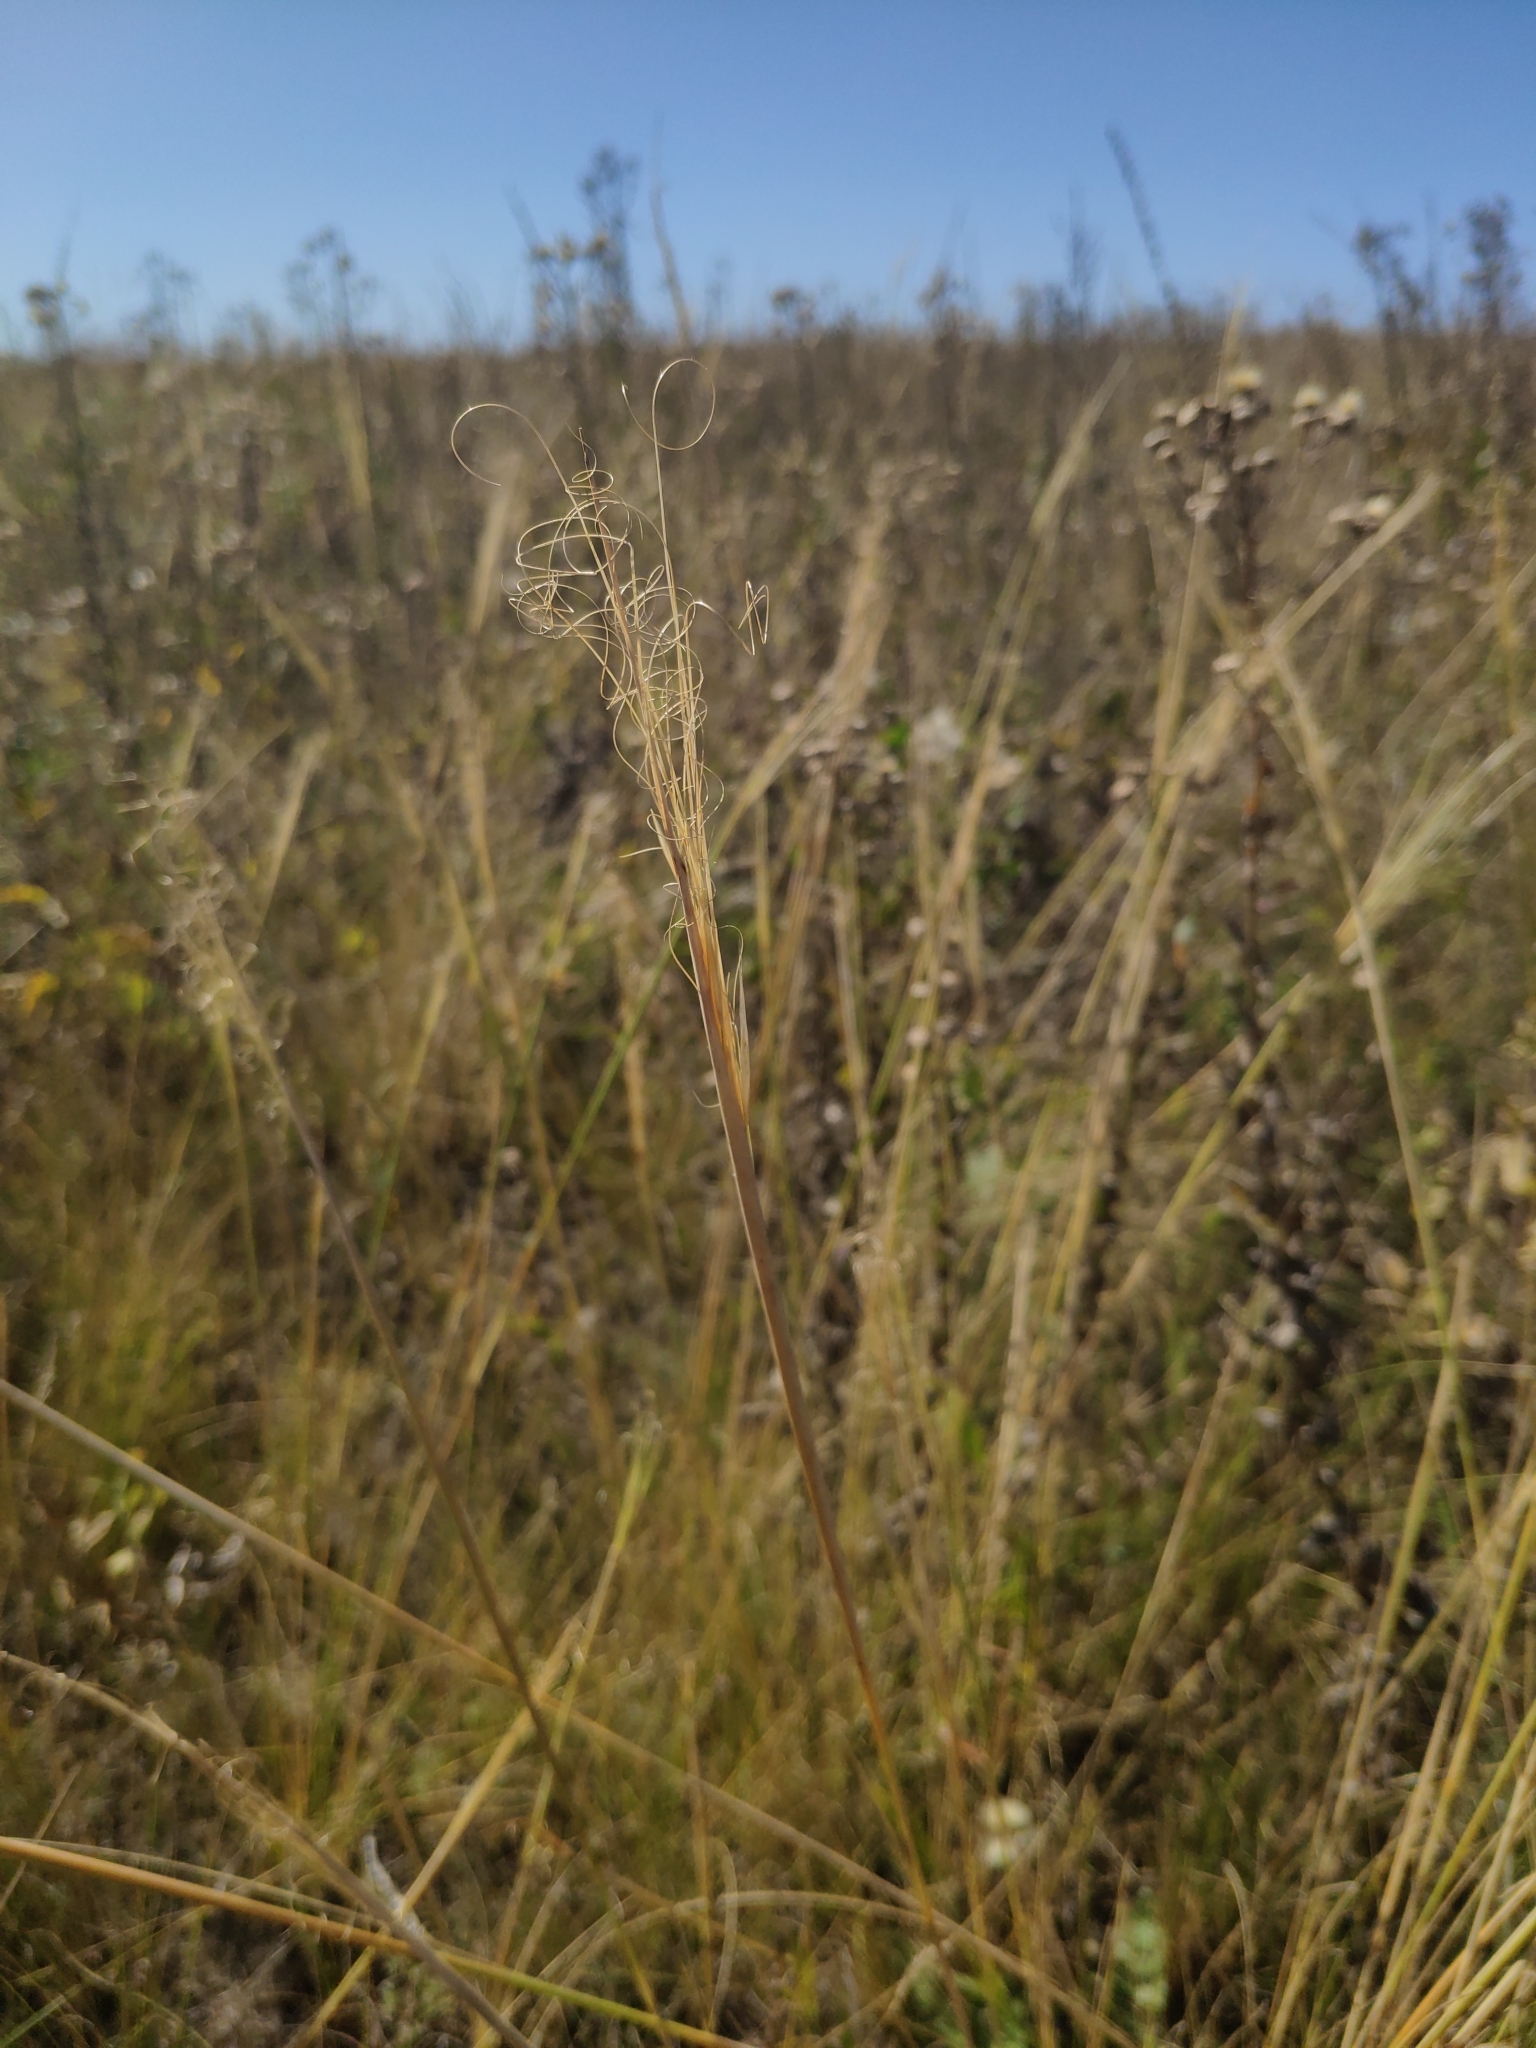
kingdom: Plantae
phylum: Tracheophyta
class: Liliopsida
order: Poales
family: Poaceae
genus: Stipa
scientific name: Stipa capillata
